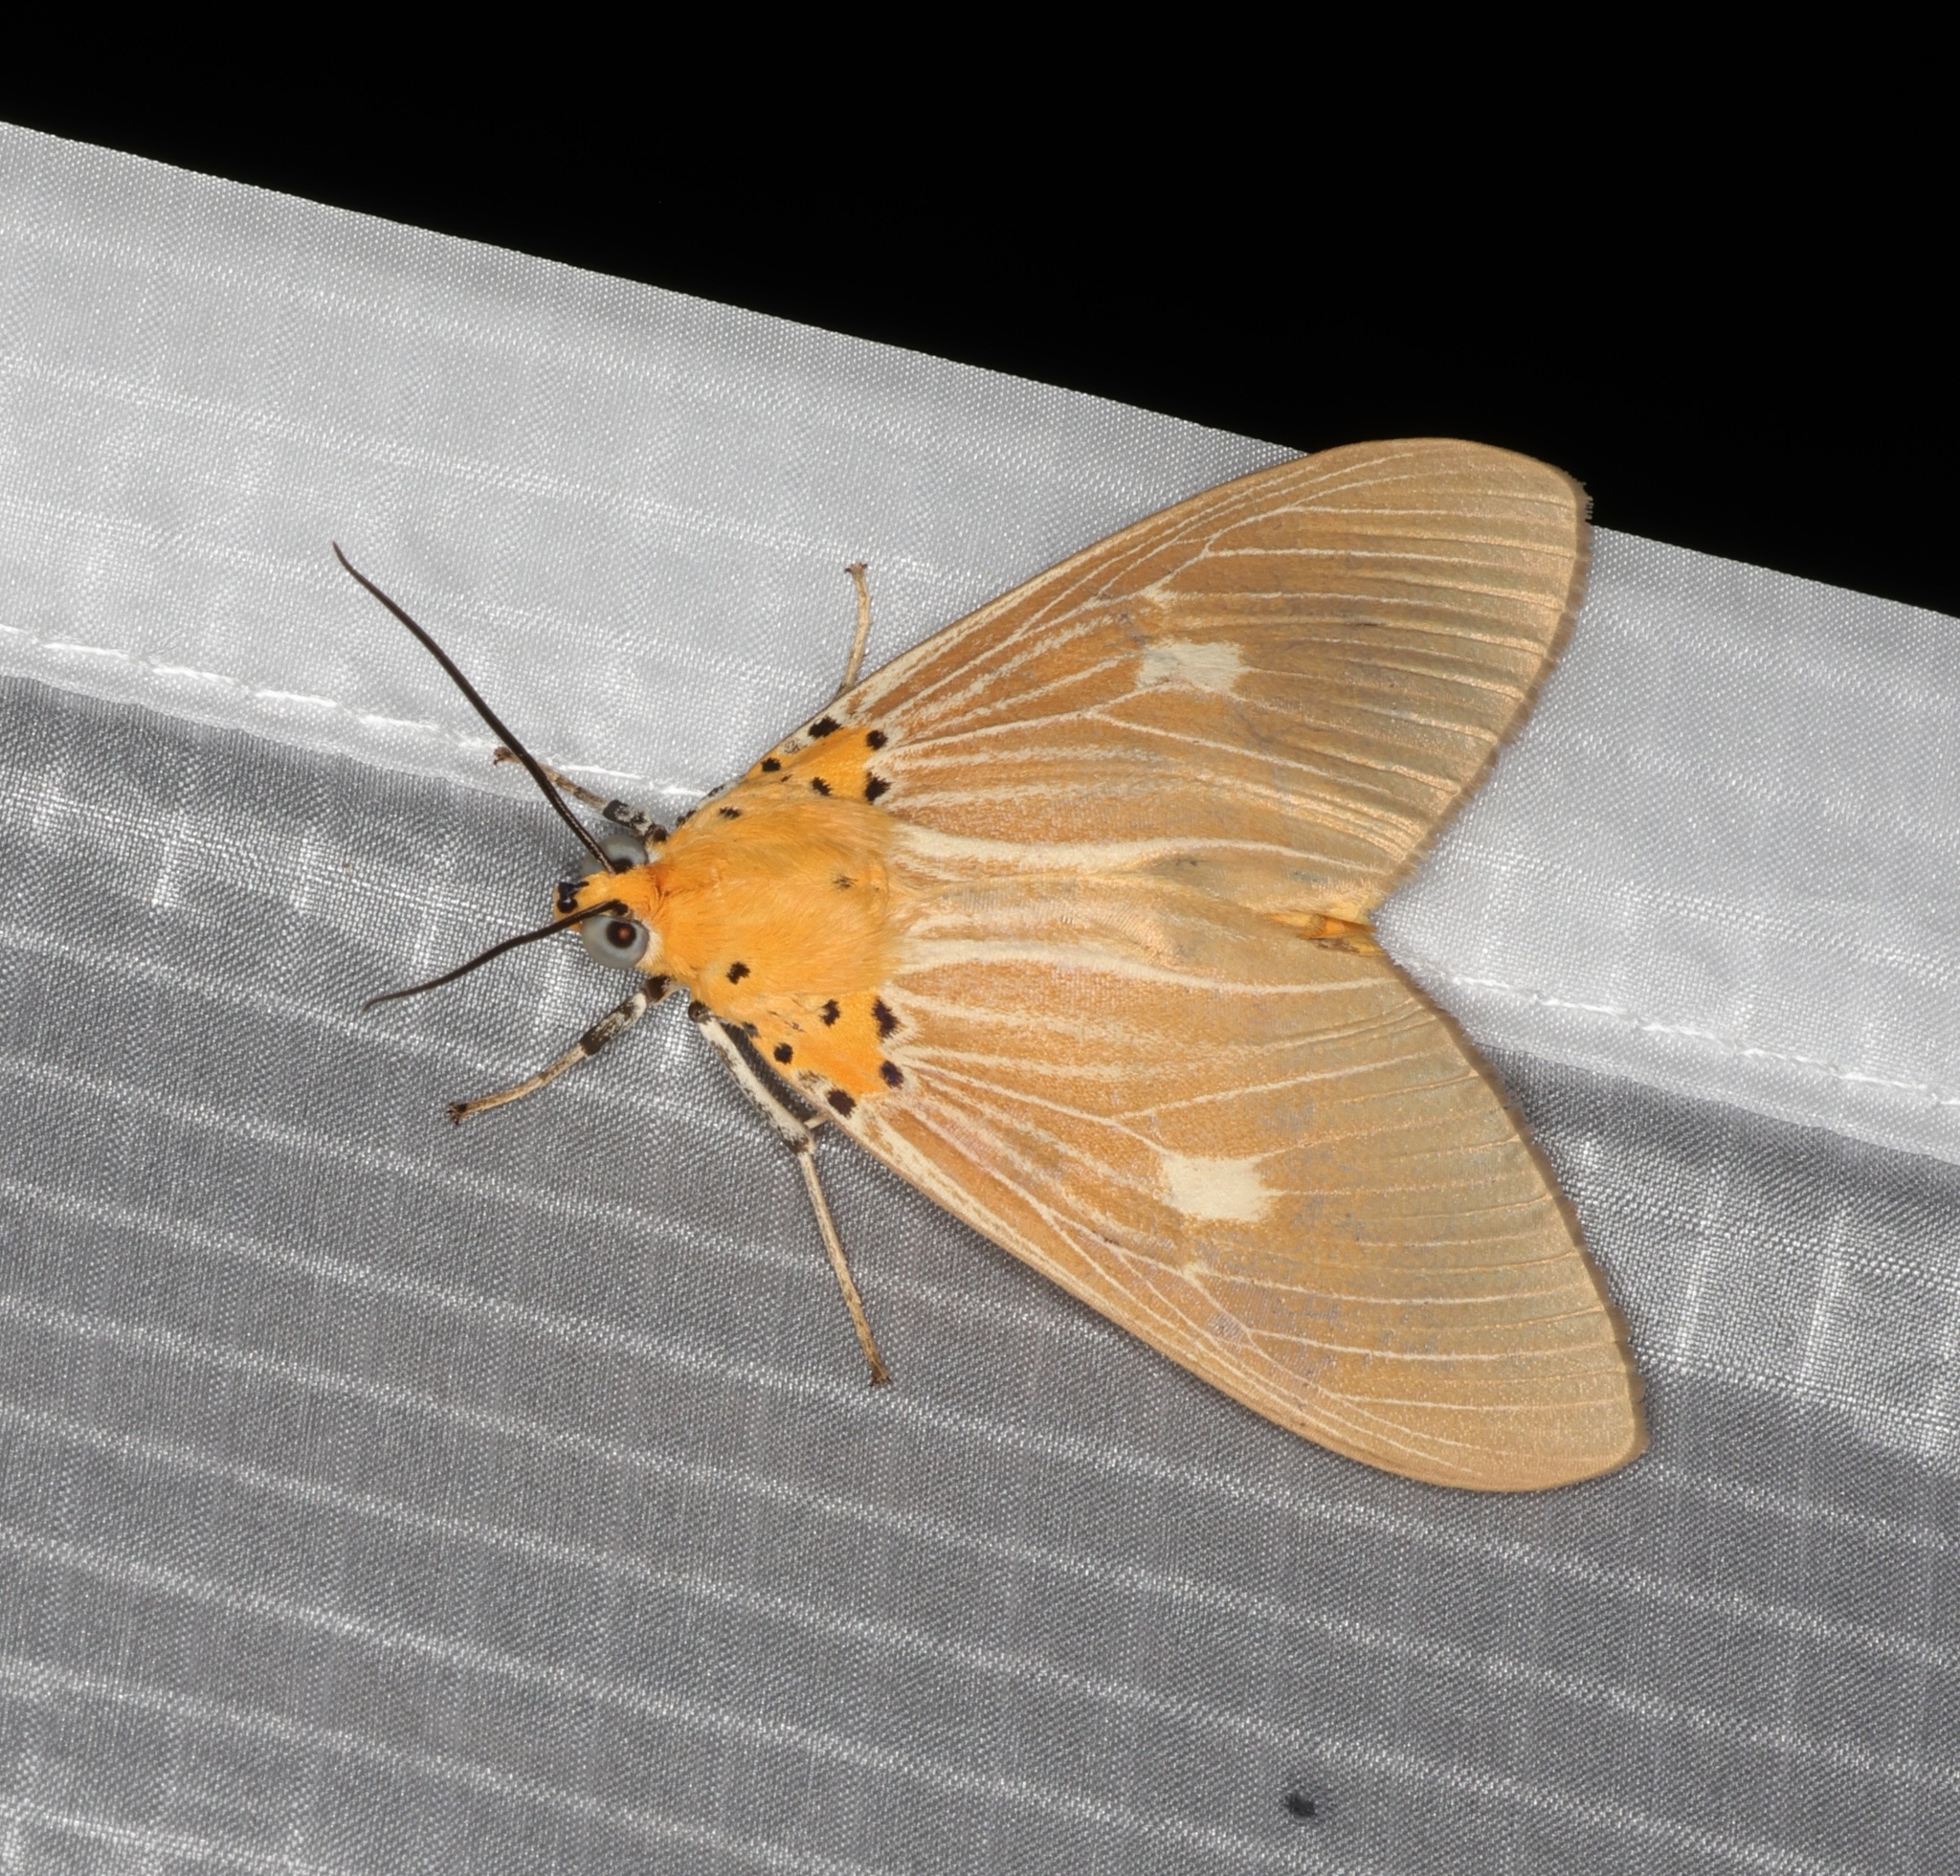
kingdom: Animalia
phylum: Arthropoda
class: Insecta
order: Lepidoptera
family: Erebidae
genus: Asota
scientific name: Asota plaginota
